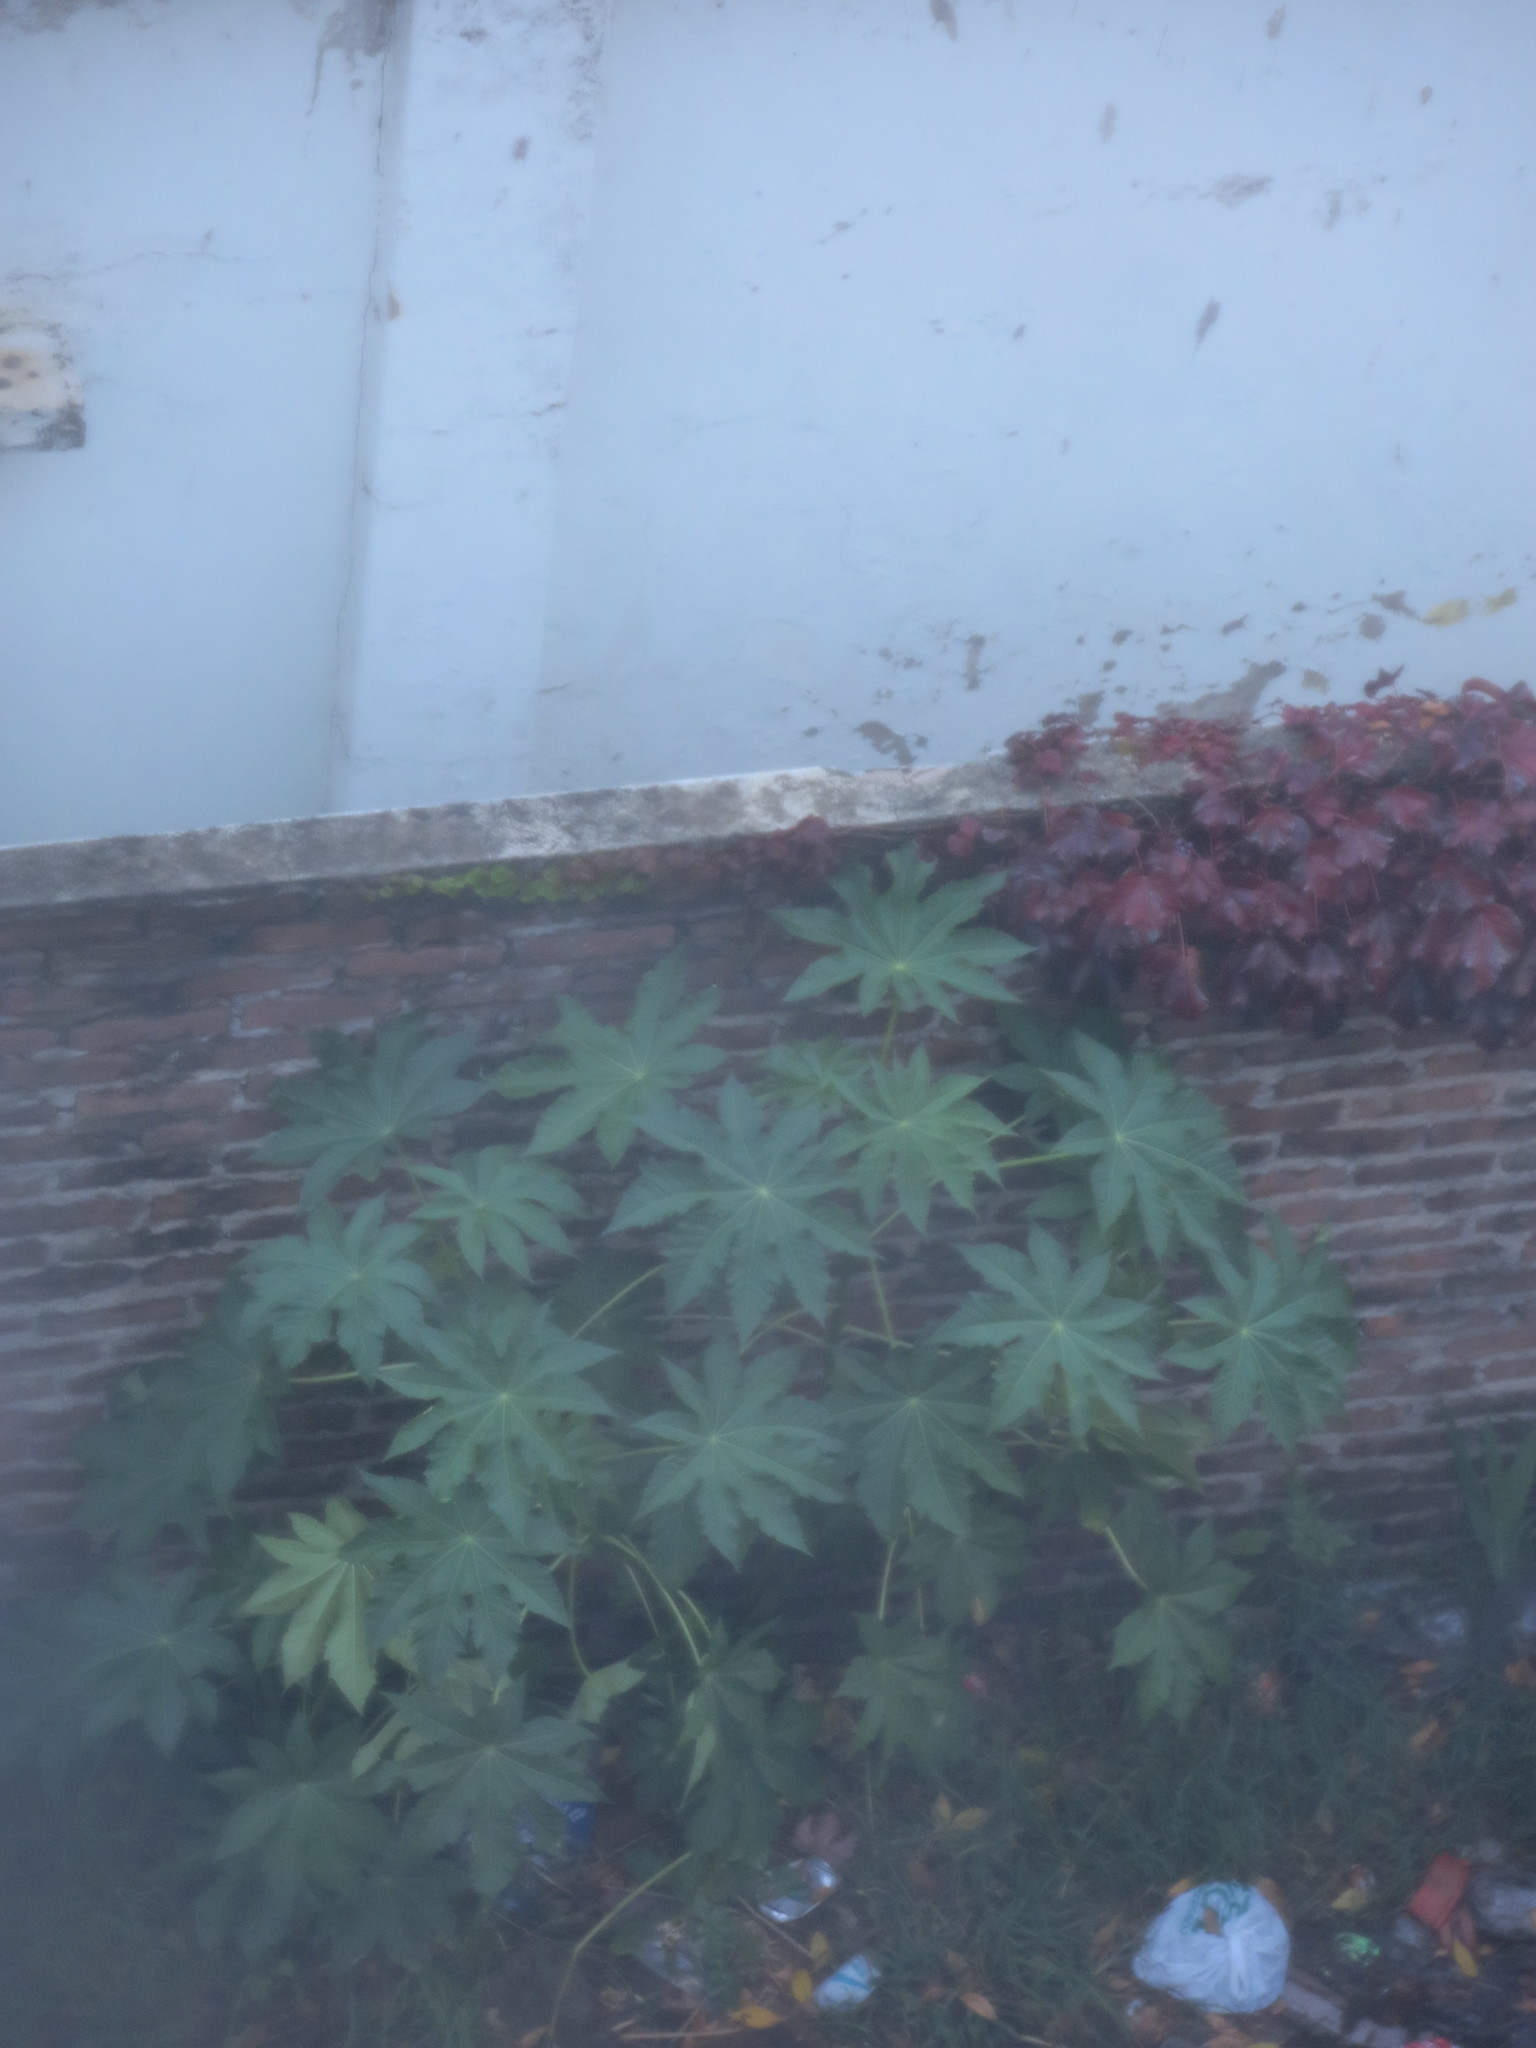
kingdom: Plantae
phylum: Tracheophyta
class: Magnoliopsida
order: Malpighiales
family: Euphorbiaceae
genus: Ricinus
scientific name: Ricinus communis
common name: Castor-oil-plant
